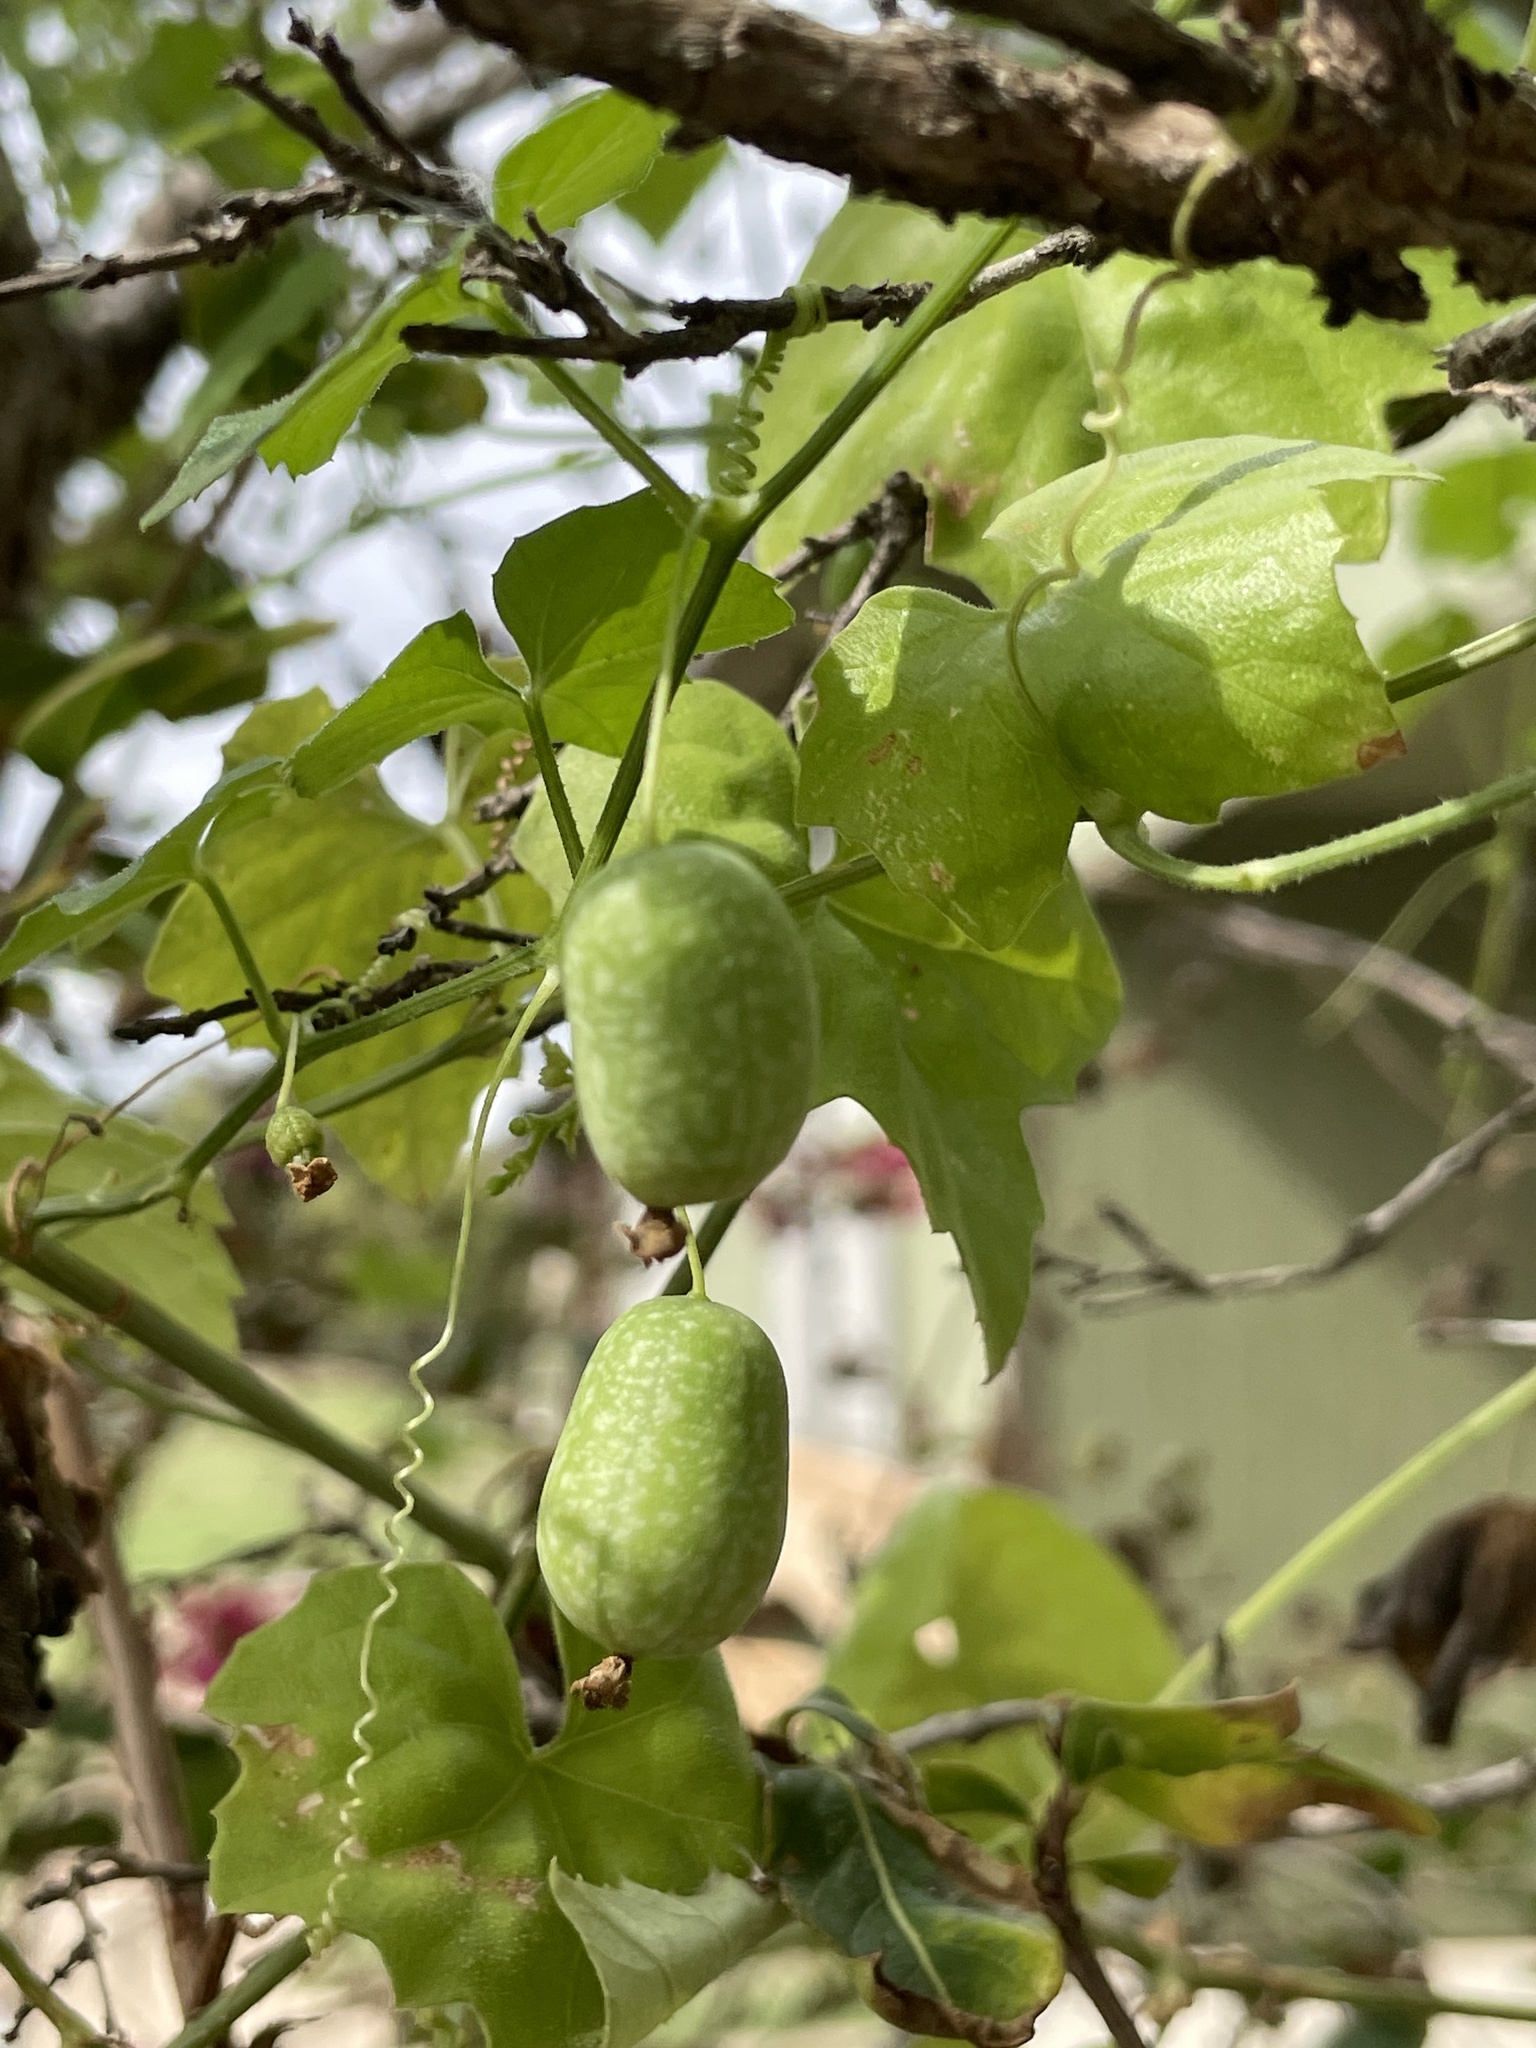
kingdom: Plantae
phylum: Tracheophyta
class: Magnoliopsida
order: Cucurbitales
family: Cucurbitaceae
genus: Melothria
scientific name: Melothria pendula
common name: Creeping-cucumber
